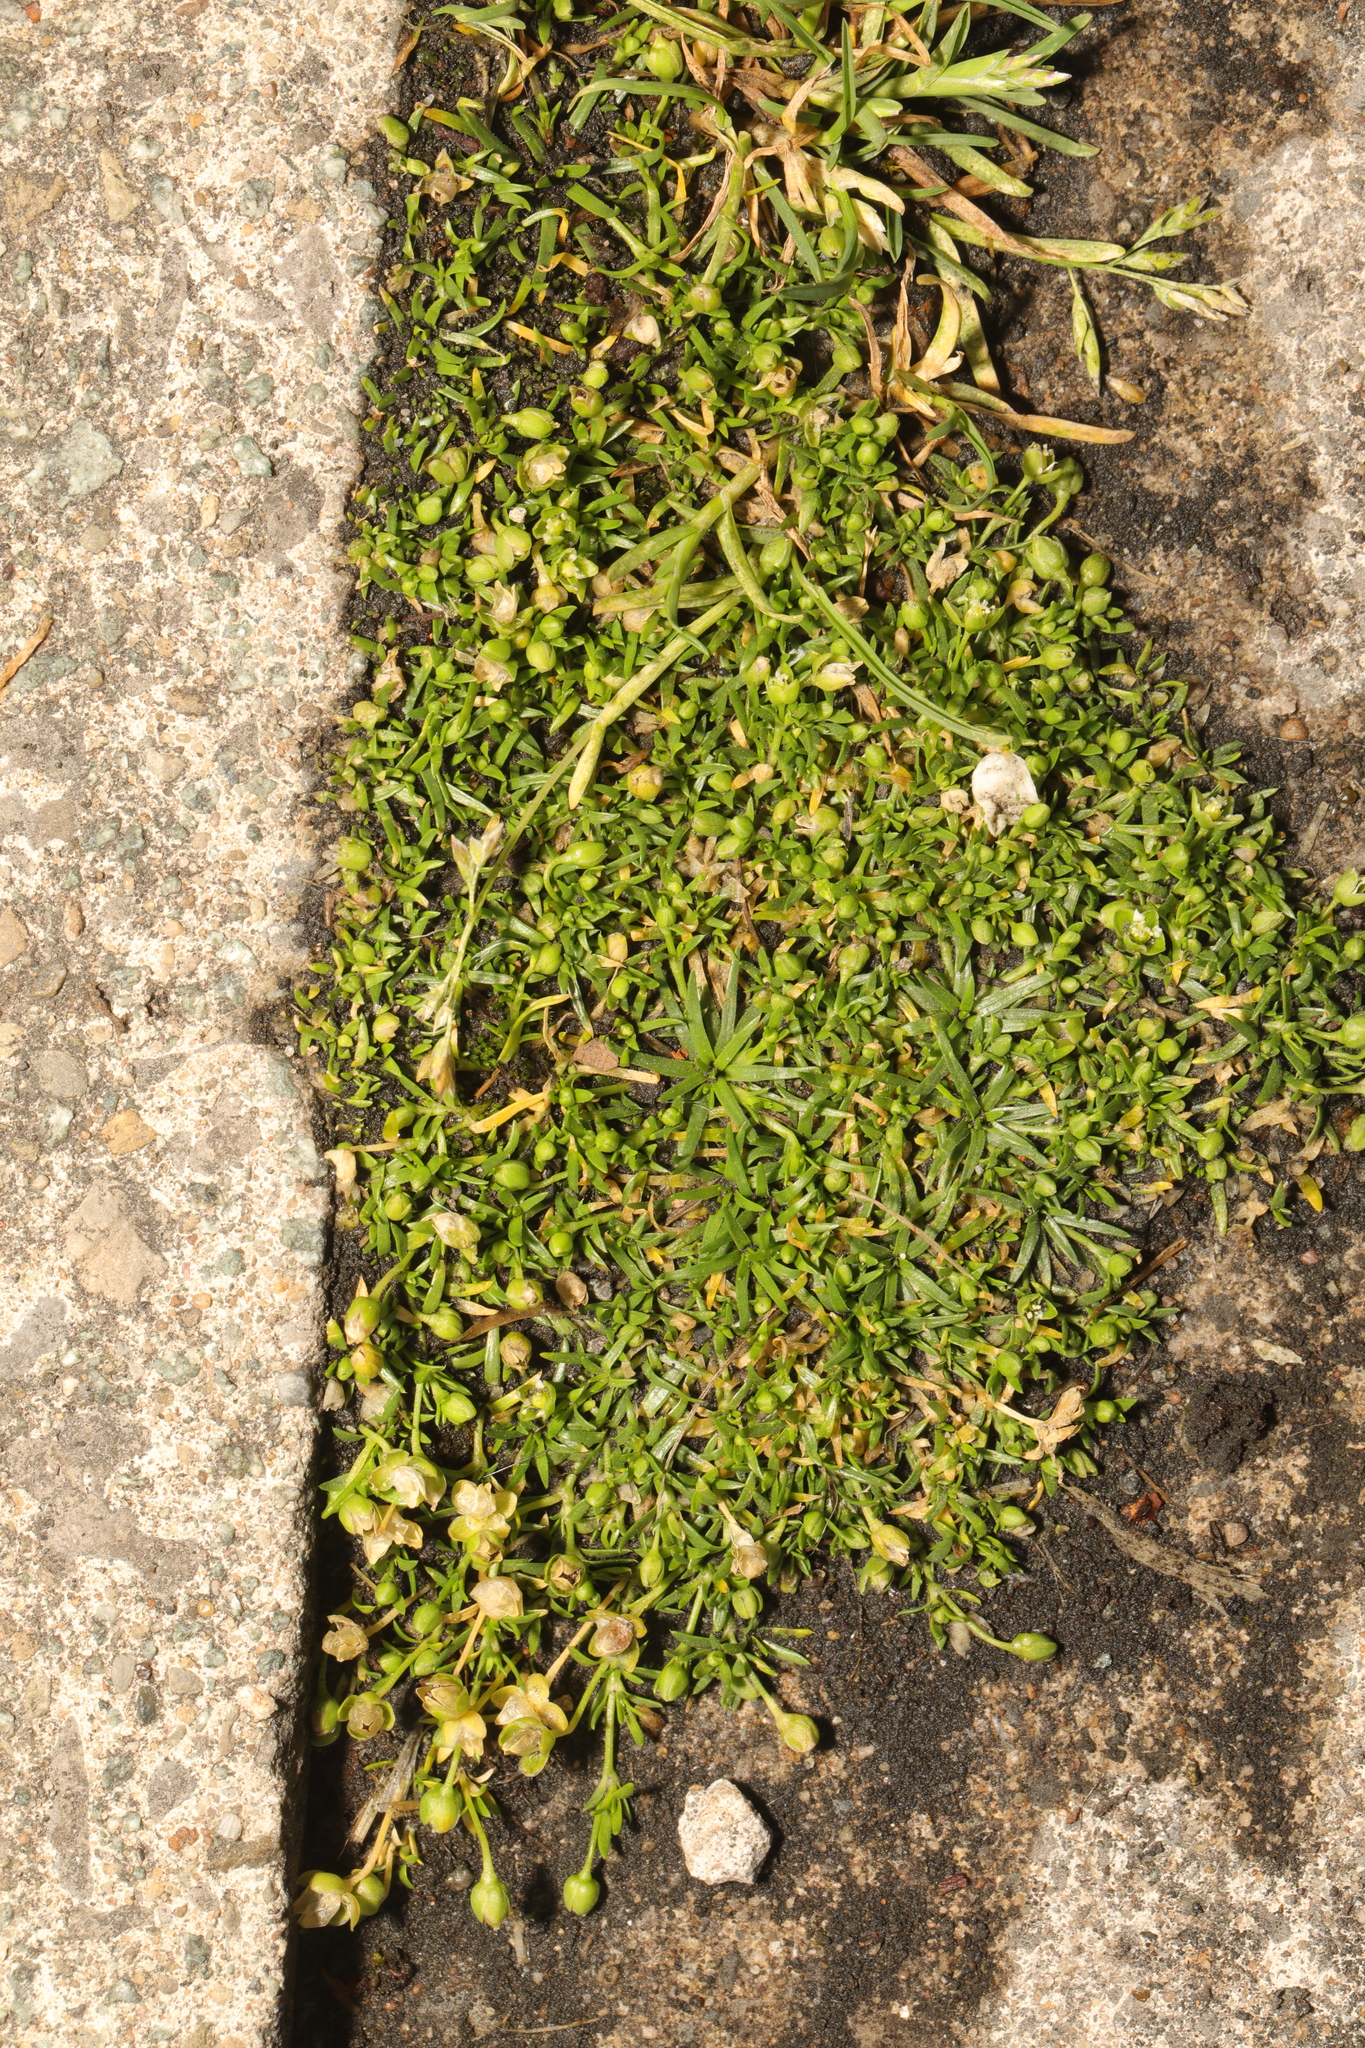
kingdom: Plantae
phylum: Tracheophyta
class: Magnoliopsida
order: Caryophyllales
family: Caryophyllaceae
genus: Sagina
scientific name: Sagina procumbens
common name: Procumbent pearlwort
